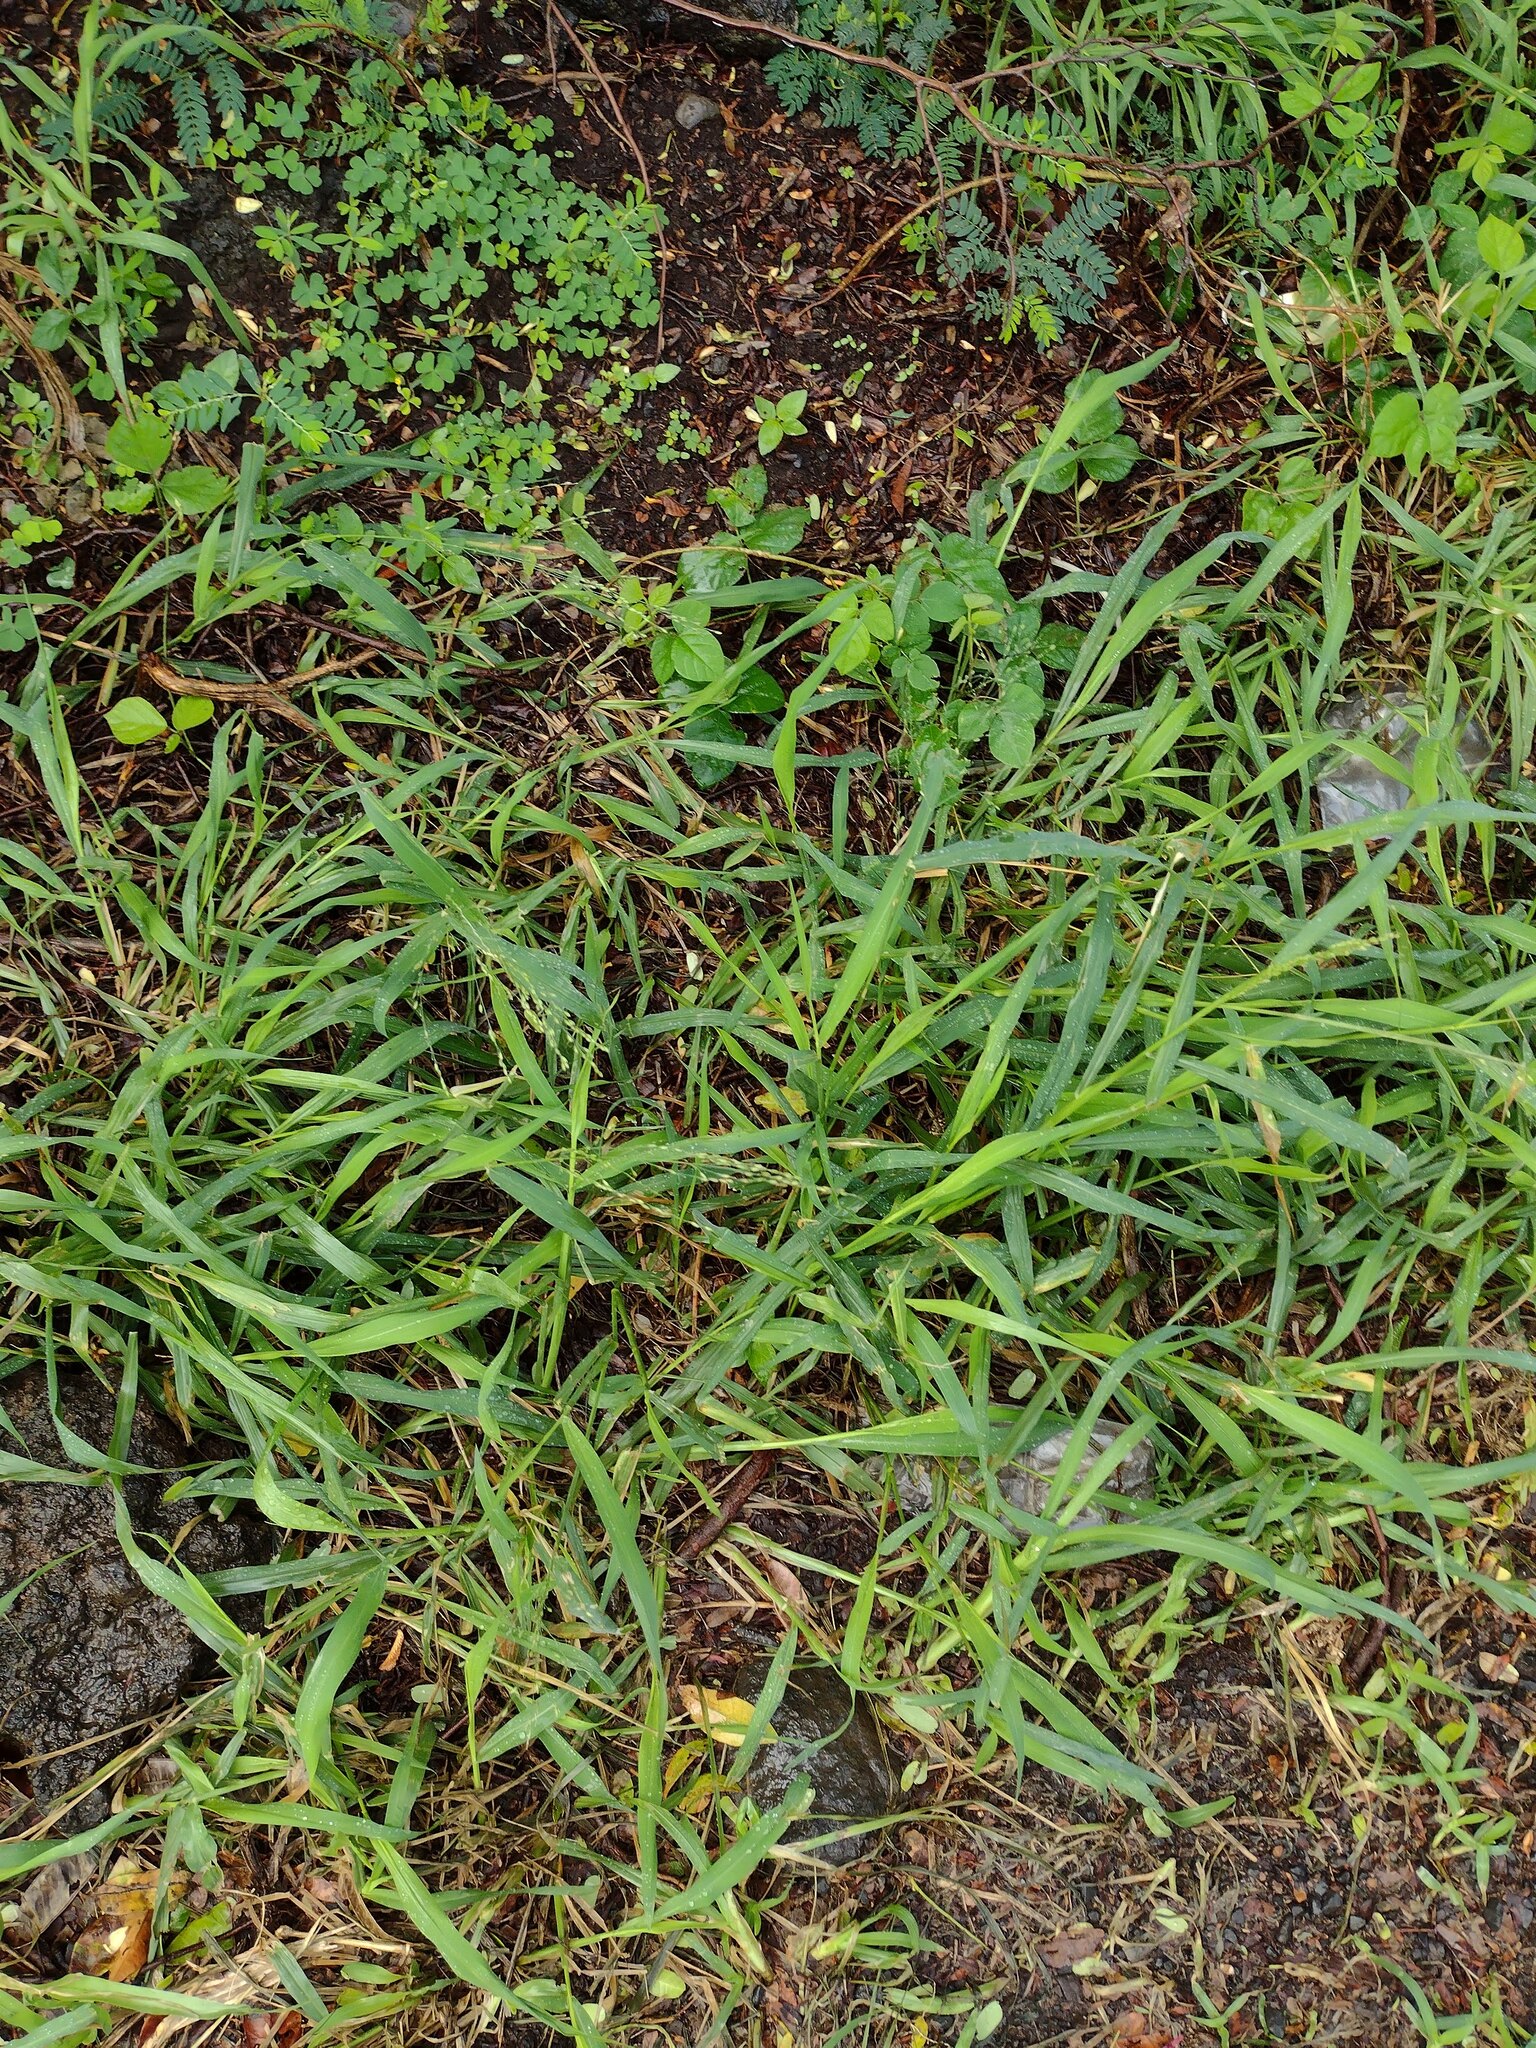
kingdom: Plantae
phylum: Tracheophyta
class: Liliopsida
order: Poales
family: Poaceae
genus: Megathyrsus
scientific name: Megathyrsus maximus
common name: Guineagrass
